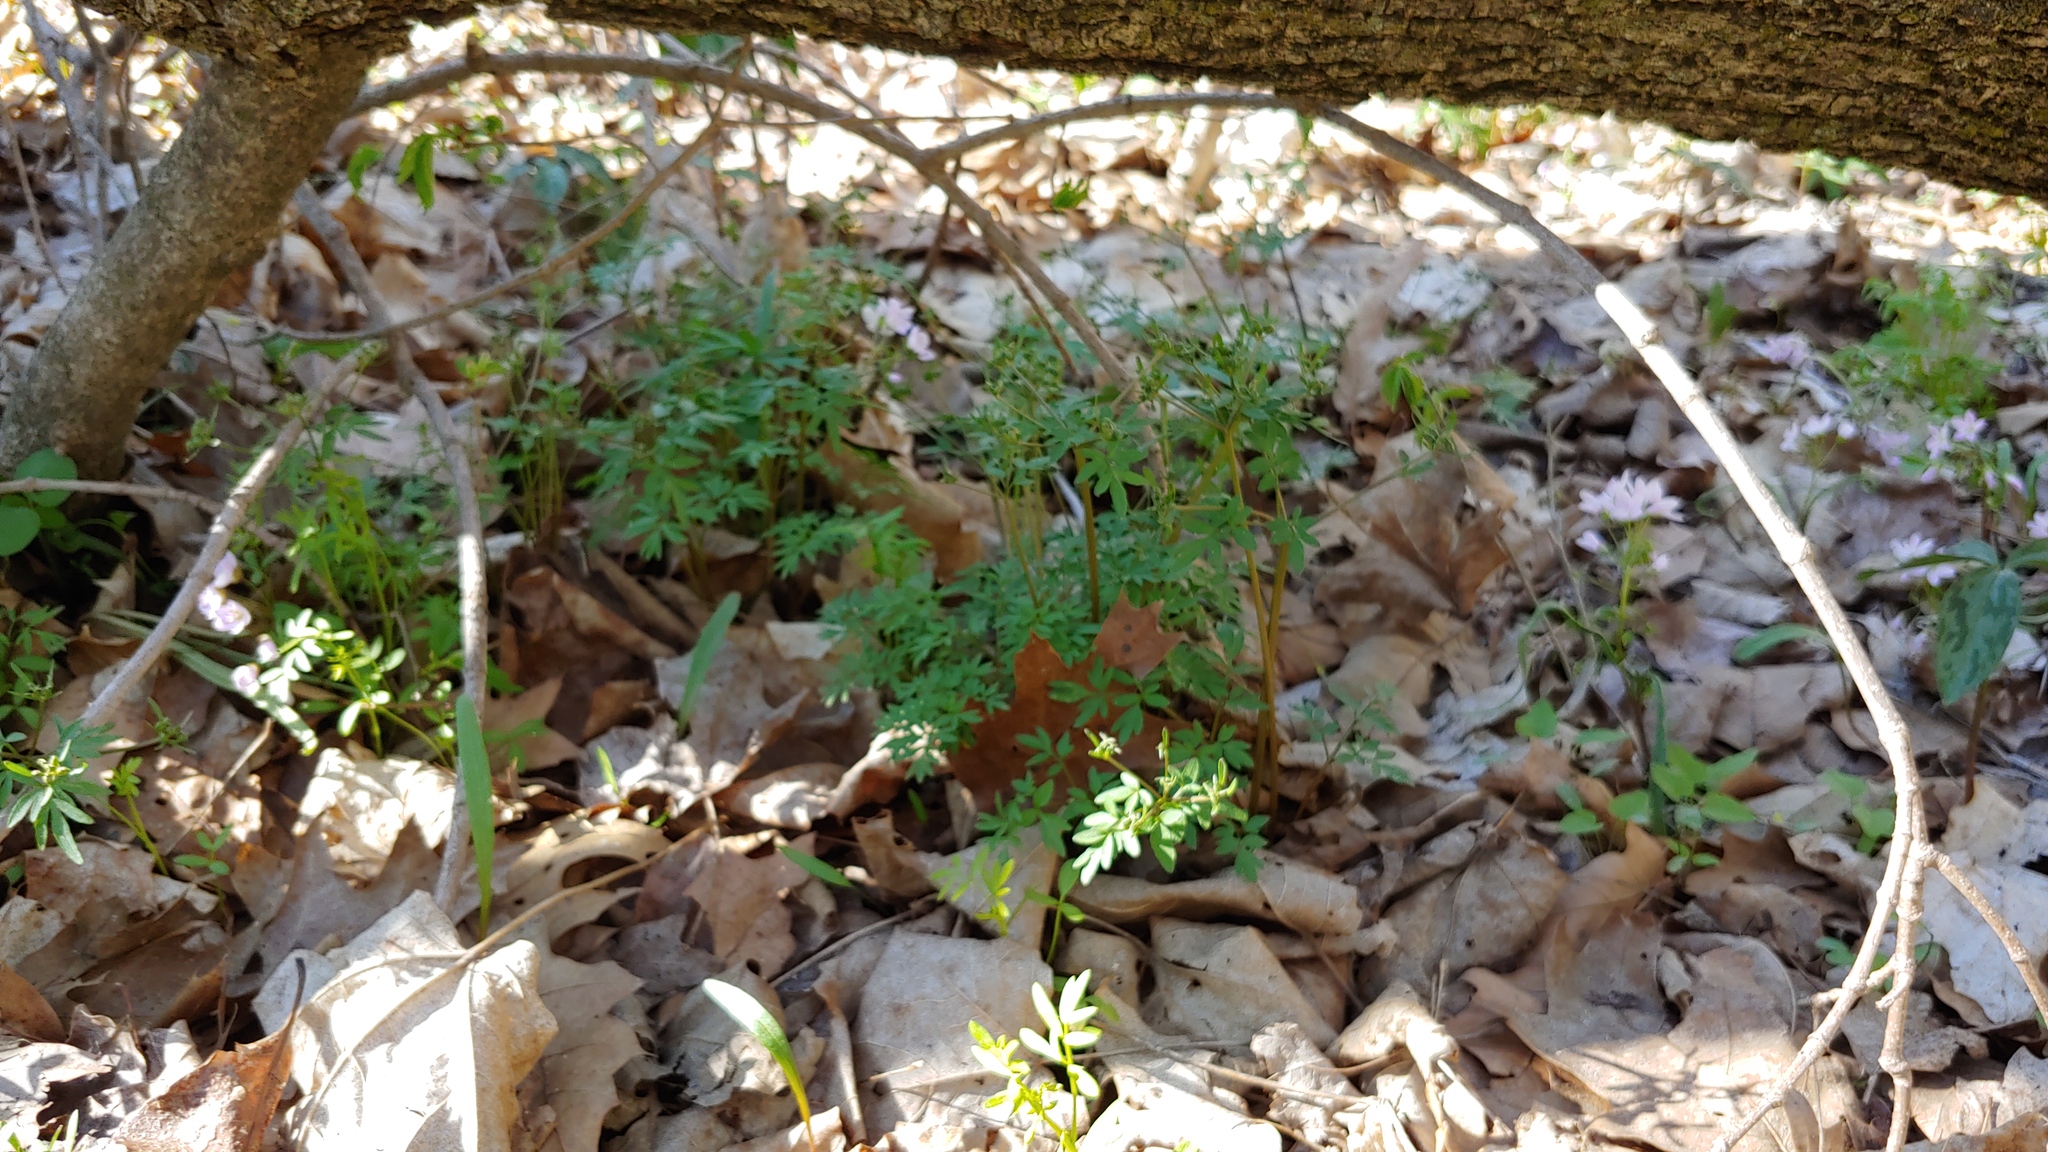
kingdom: Plantae
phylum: Tracheophyta
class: Magnoliopsida
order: Apiales
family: Apiaceae
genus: Erigenia
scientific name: Erigenia bulbosa
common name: Pepper-and-salt
